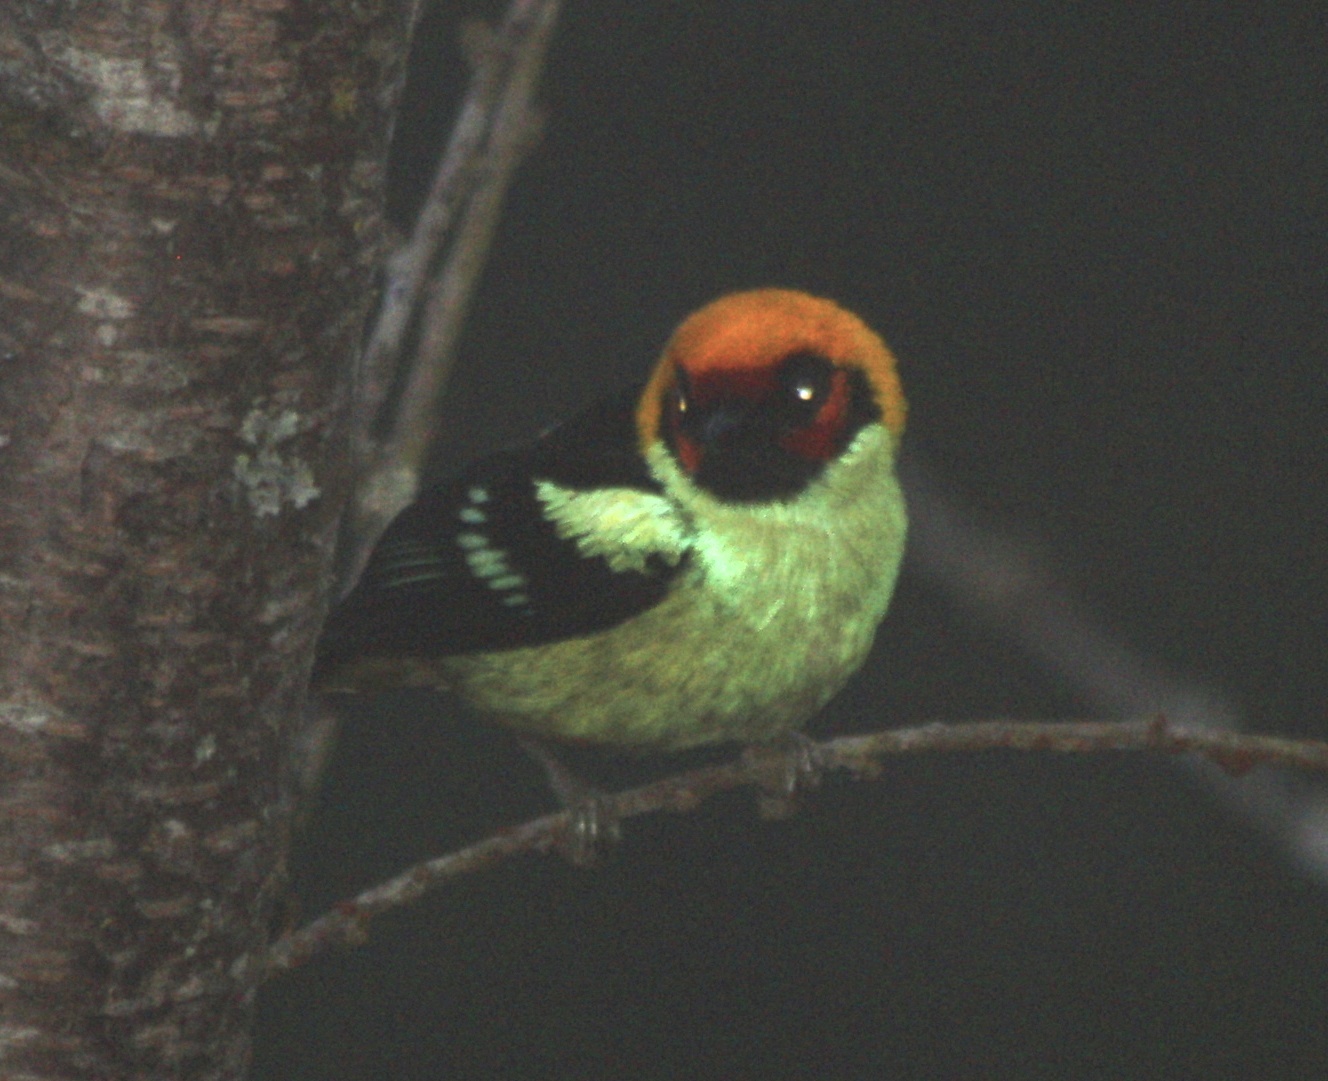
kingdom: Animalia
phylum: Chordata
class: Aves
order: Passeriformes
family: Thraupidae
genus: Tangara
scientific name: Tangara parzudakii
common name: Flame-faced tanager
